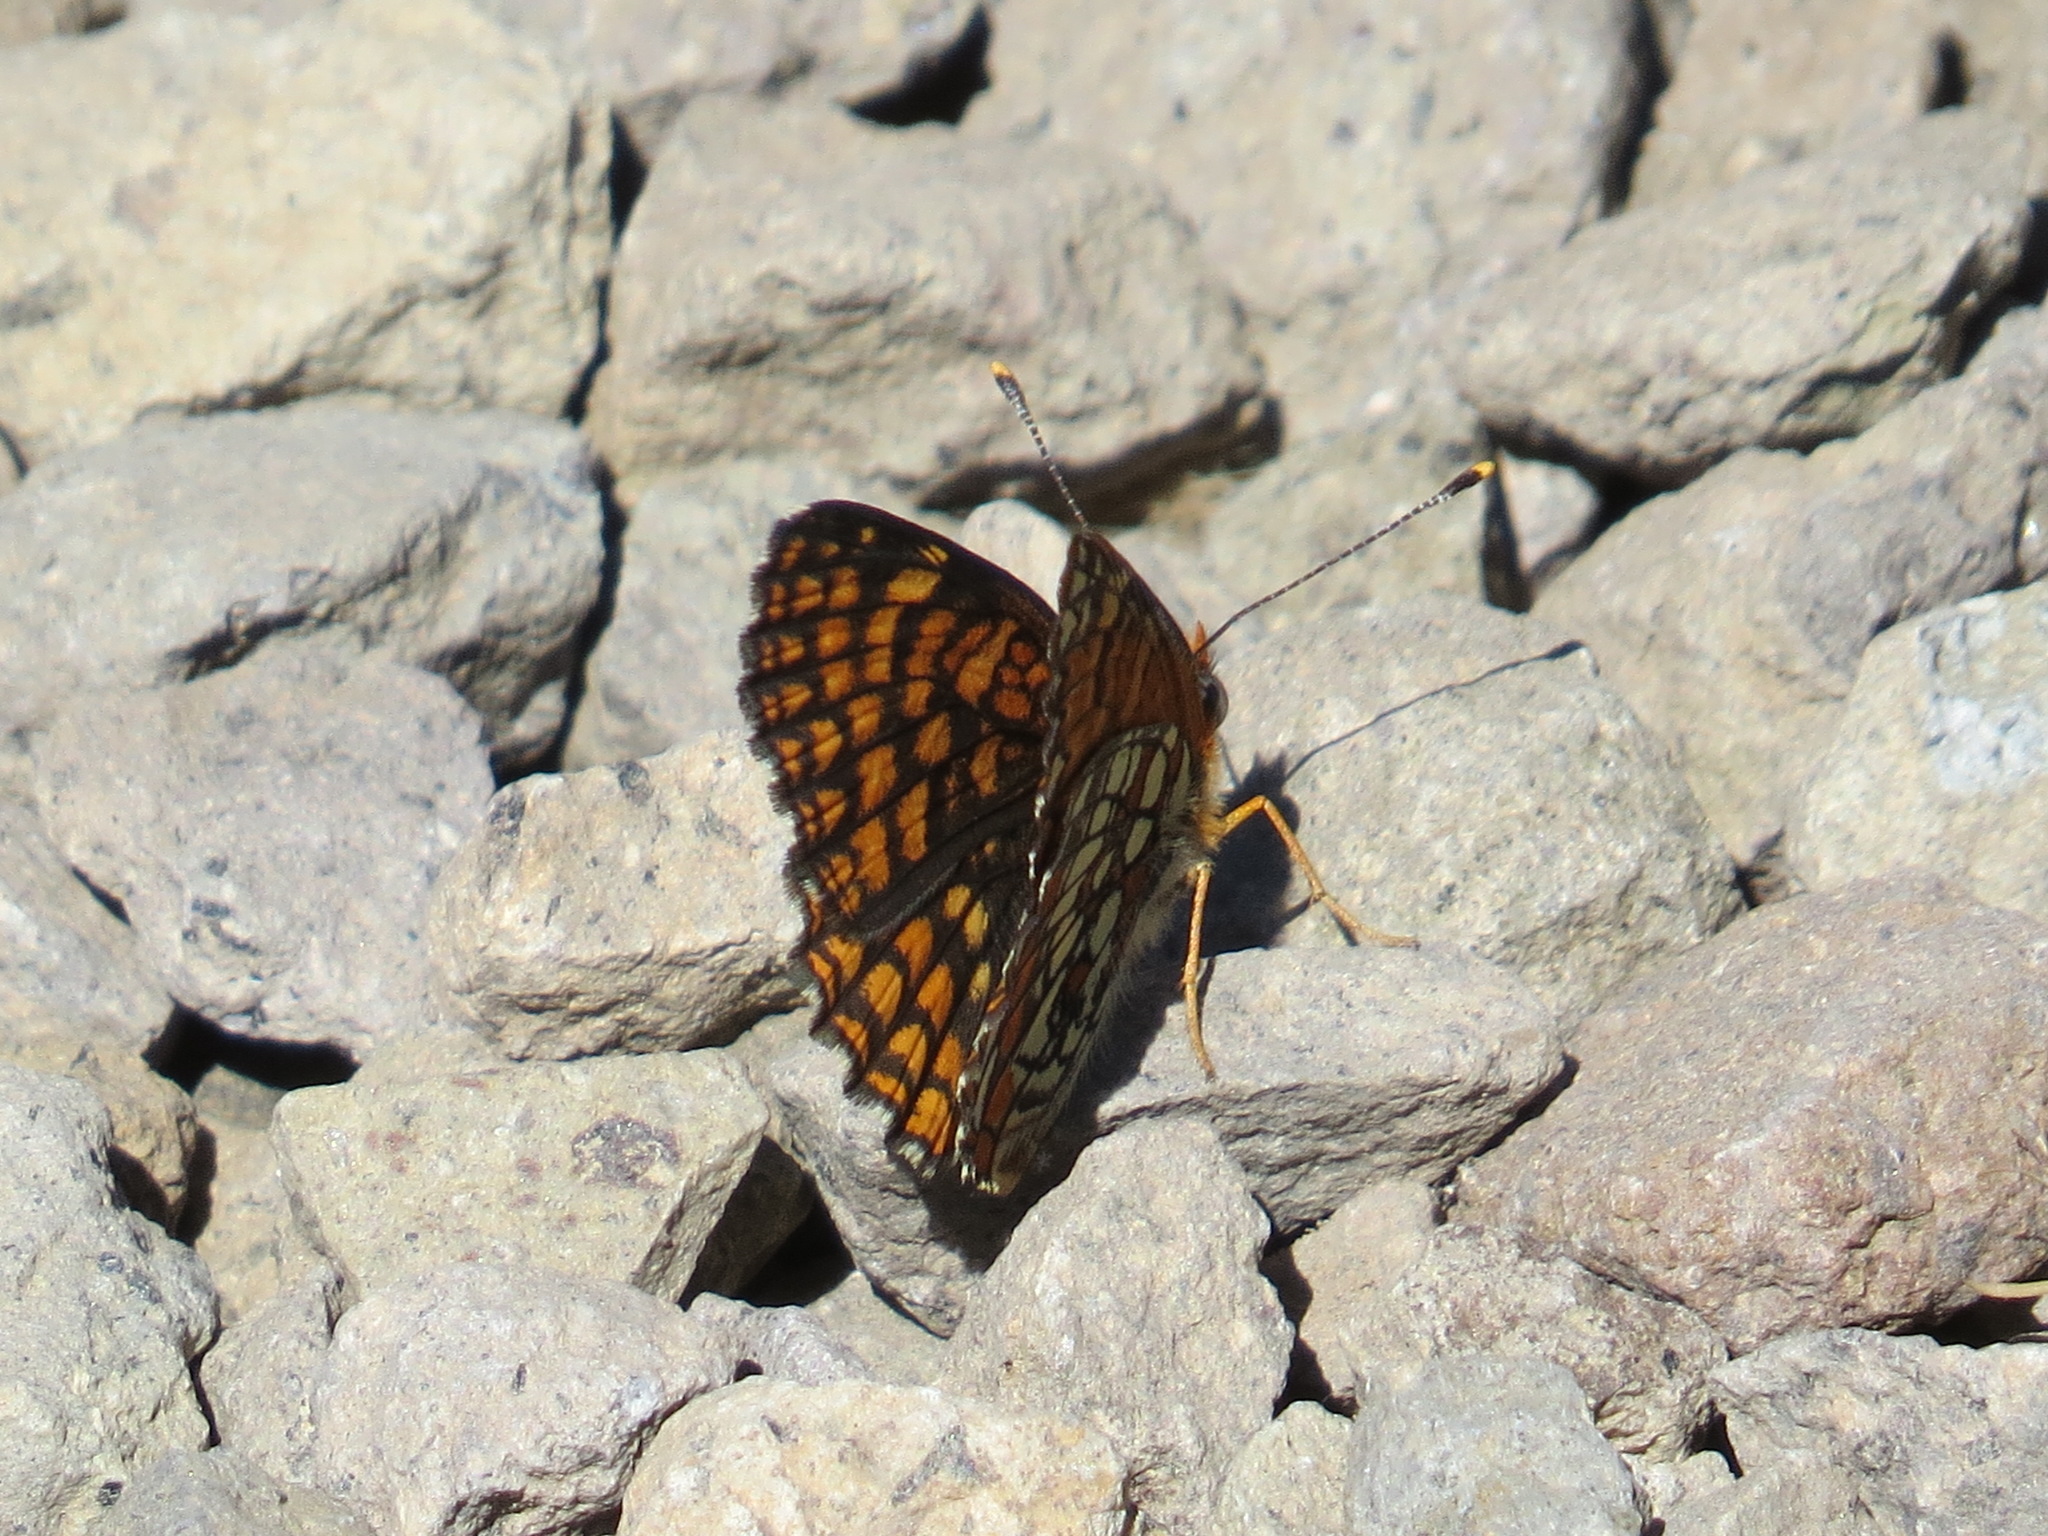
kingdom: Animalia
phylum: Arthropoda
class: Insecta
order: Lepidoptera
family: Nymphalidae
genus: Chlosyne
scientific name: Chlosyne palla
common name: Northern checkerspot
